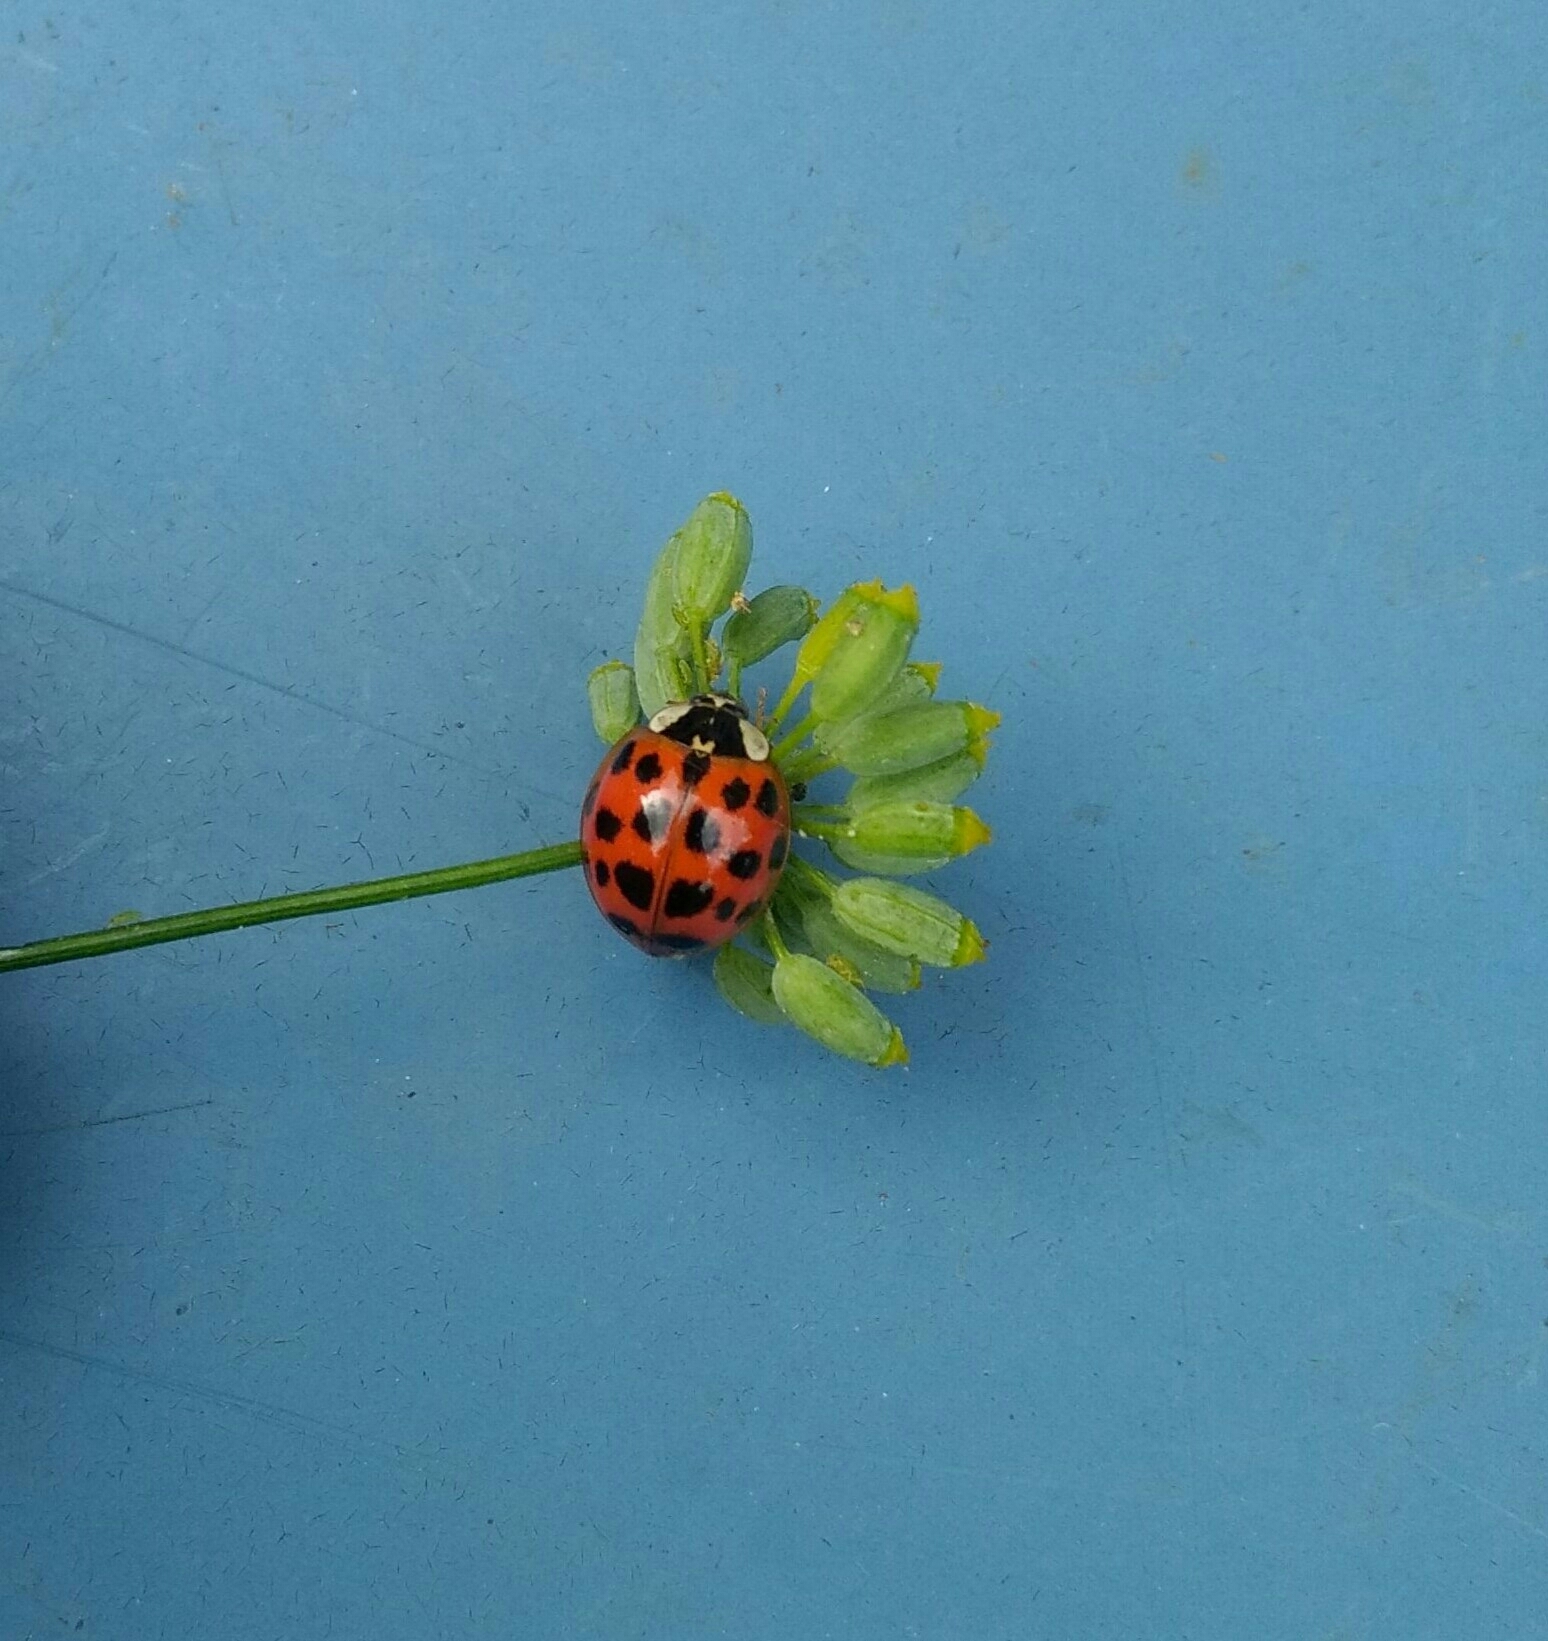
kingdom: Animalia
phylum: Arthropoda
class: Insecta
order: Coleoptera
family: Coccinellidae
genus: Harmonia
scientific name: Harmonia axyridis
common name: Harlequin ladybird
